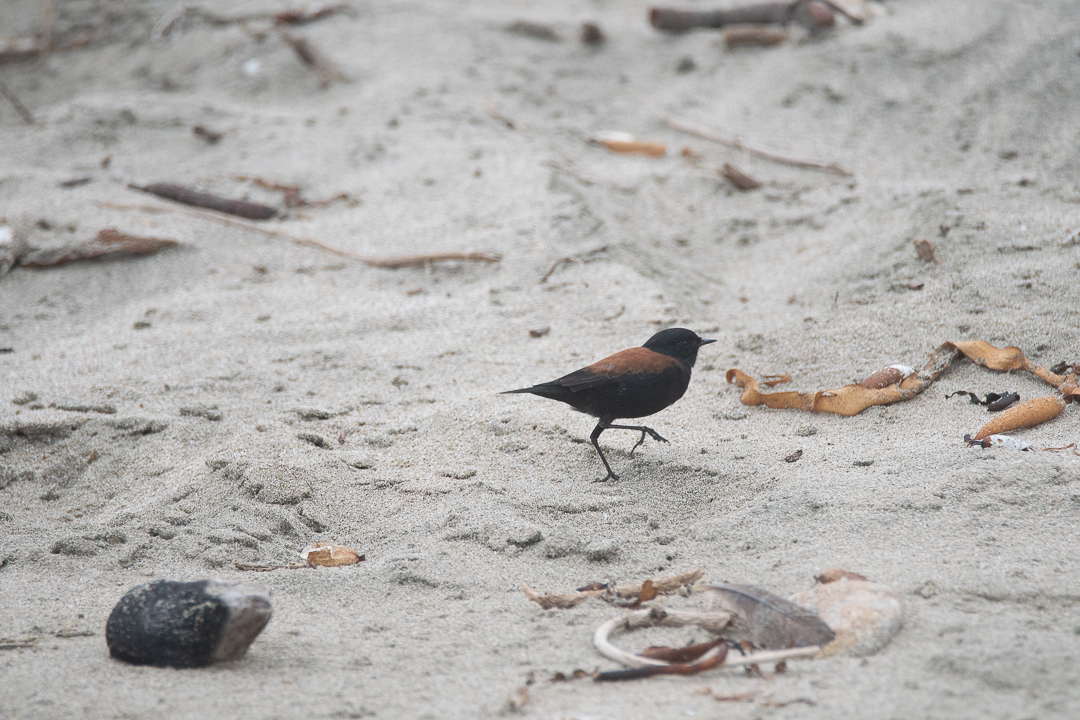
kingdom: Animalia
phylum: Chordata
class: Aves
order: Passeriformes
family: Tyrannidae
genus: Lessonia
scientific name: Lessonia rufa
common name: Austral negrito
